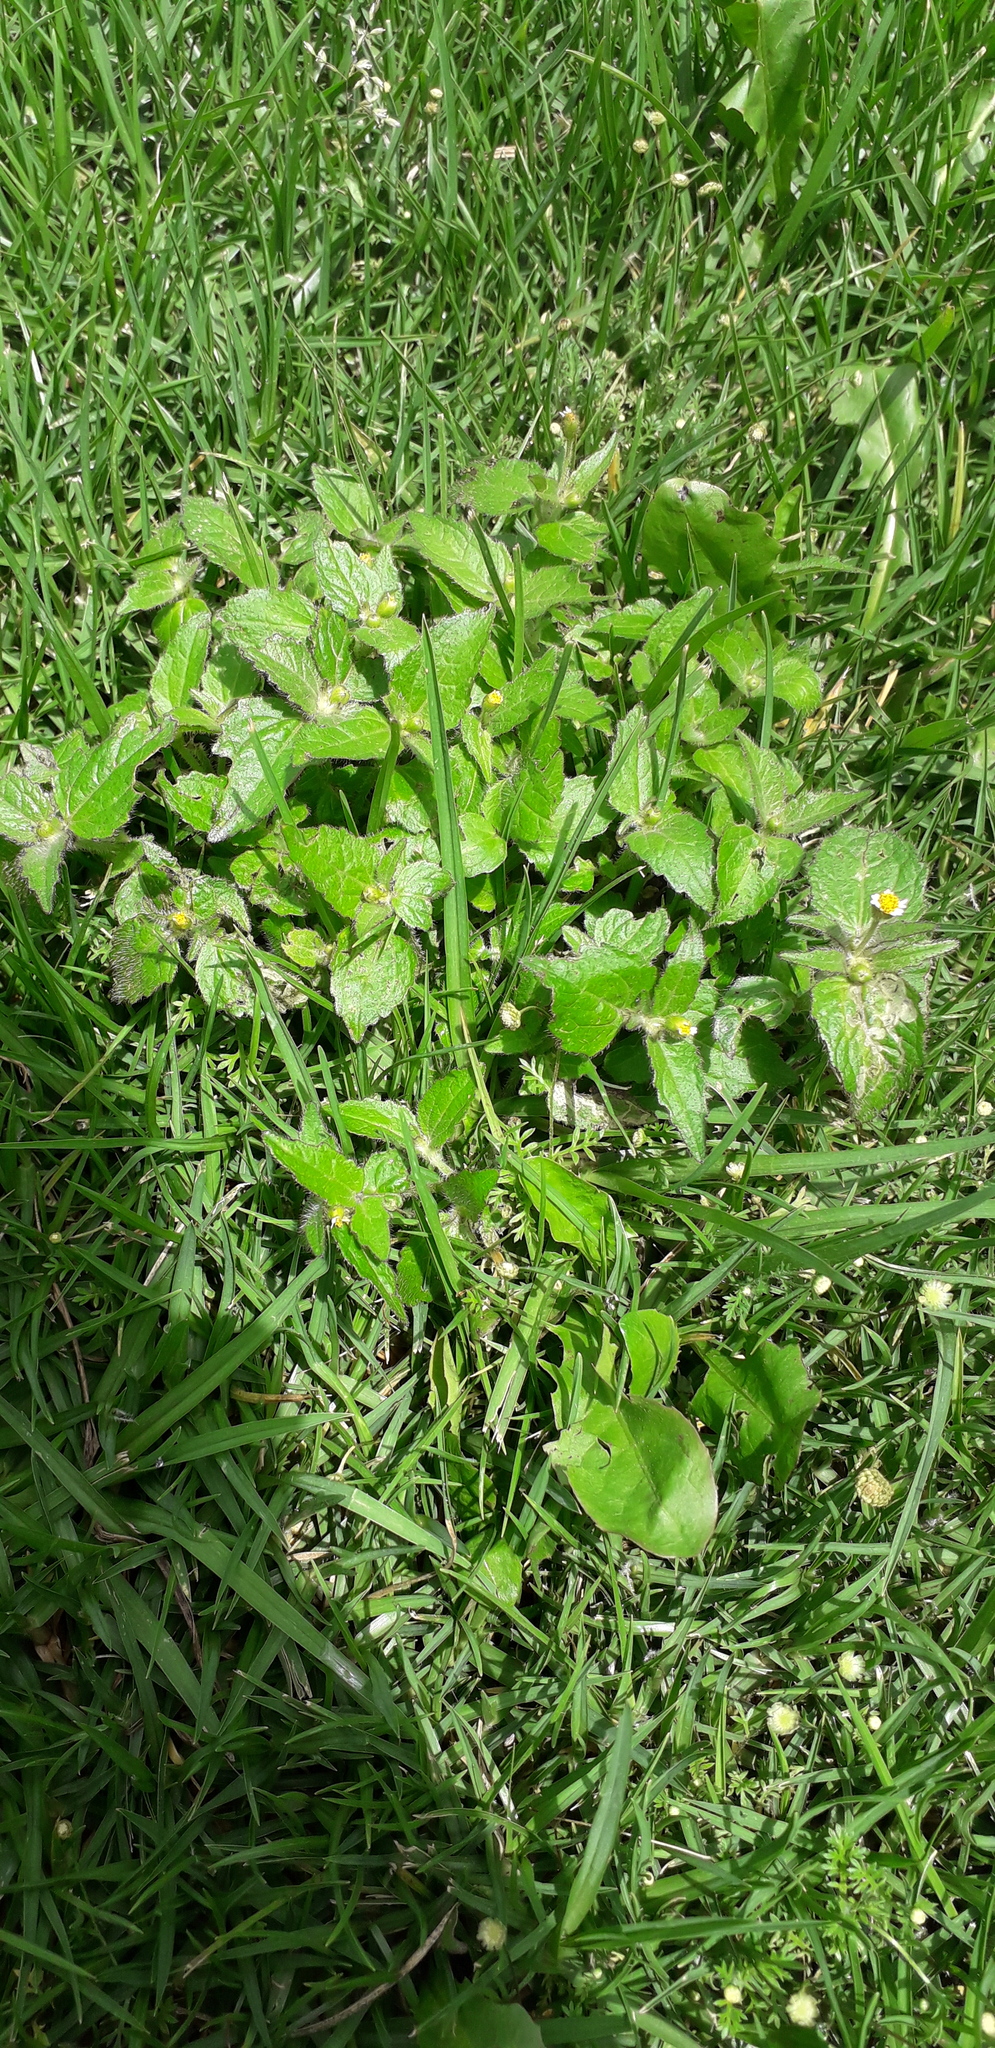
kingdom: Plantae
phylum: Tracheophyta
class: Magnoliopsida
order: Asterales
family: Asteraceae
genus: Galinsoga
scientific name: Galinsoga quadriradiata
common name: Shaggy soldier
